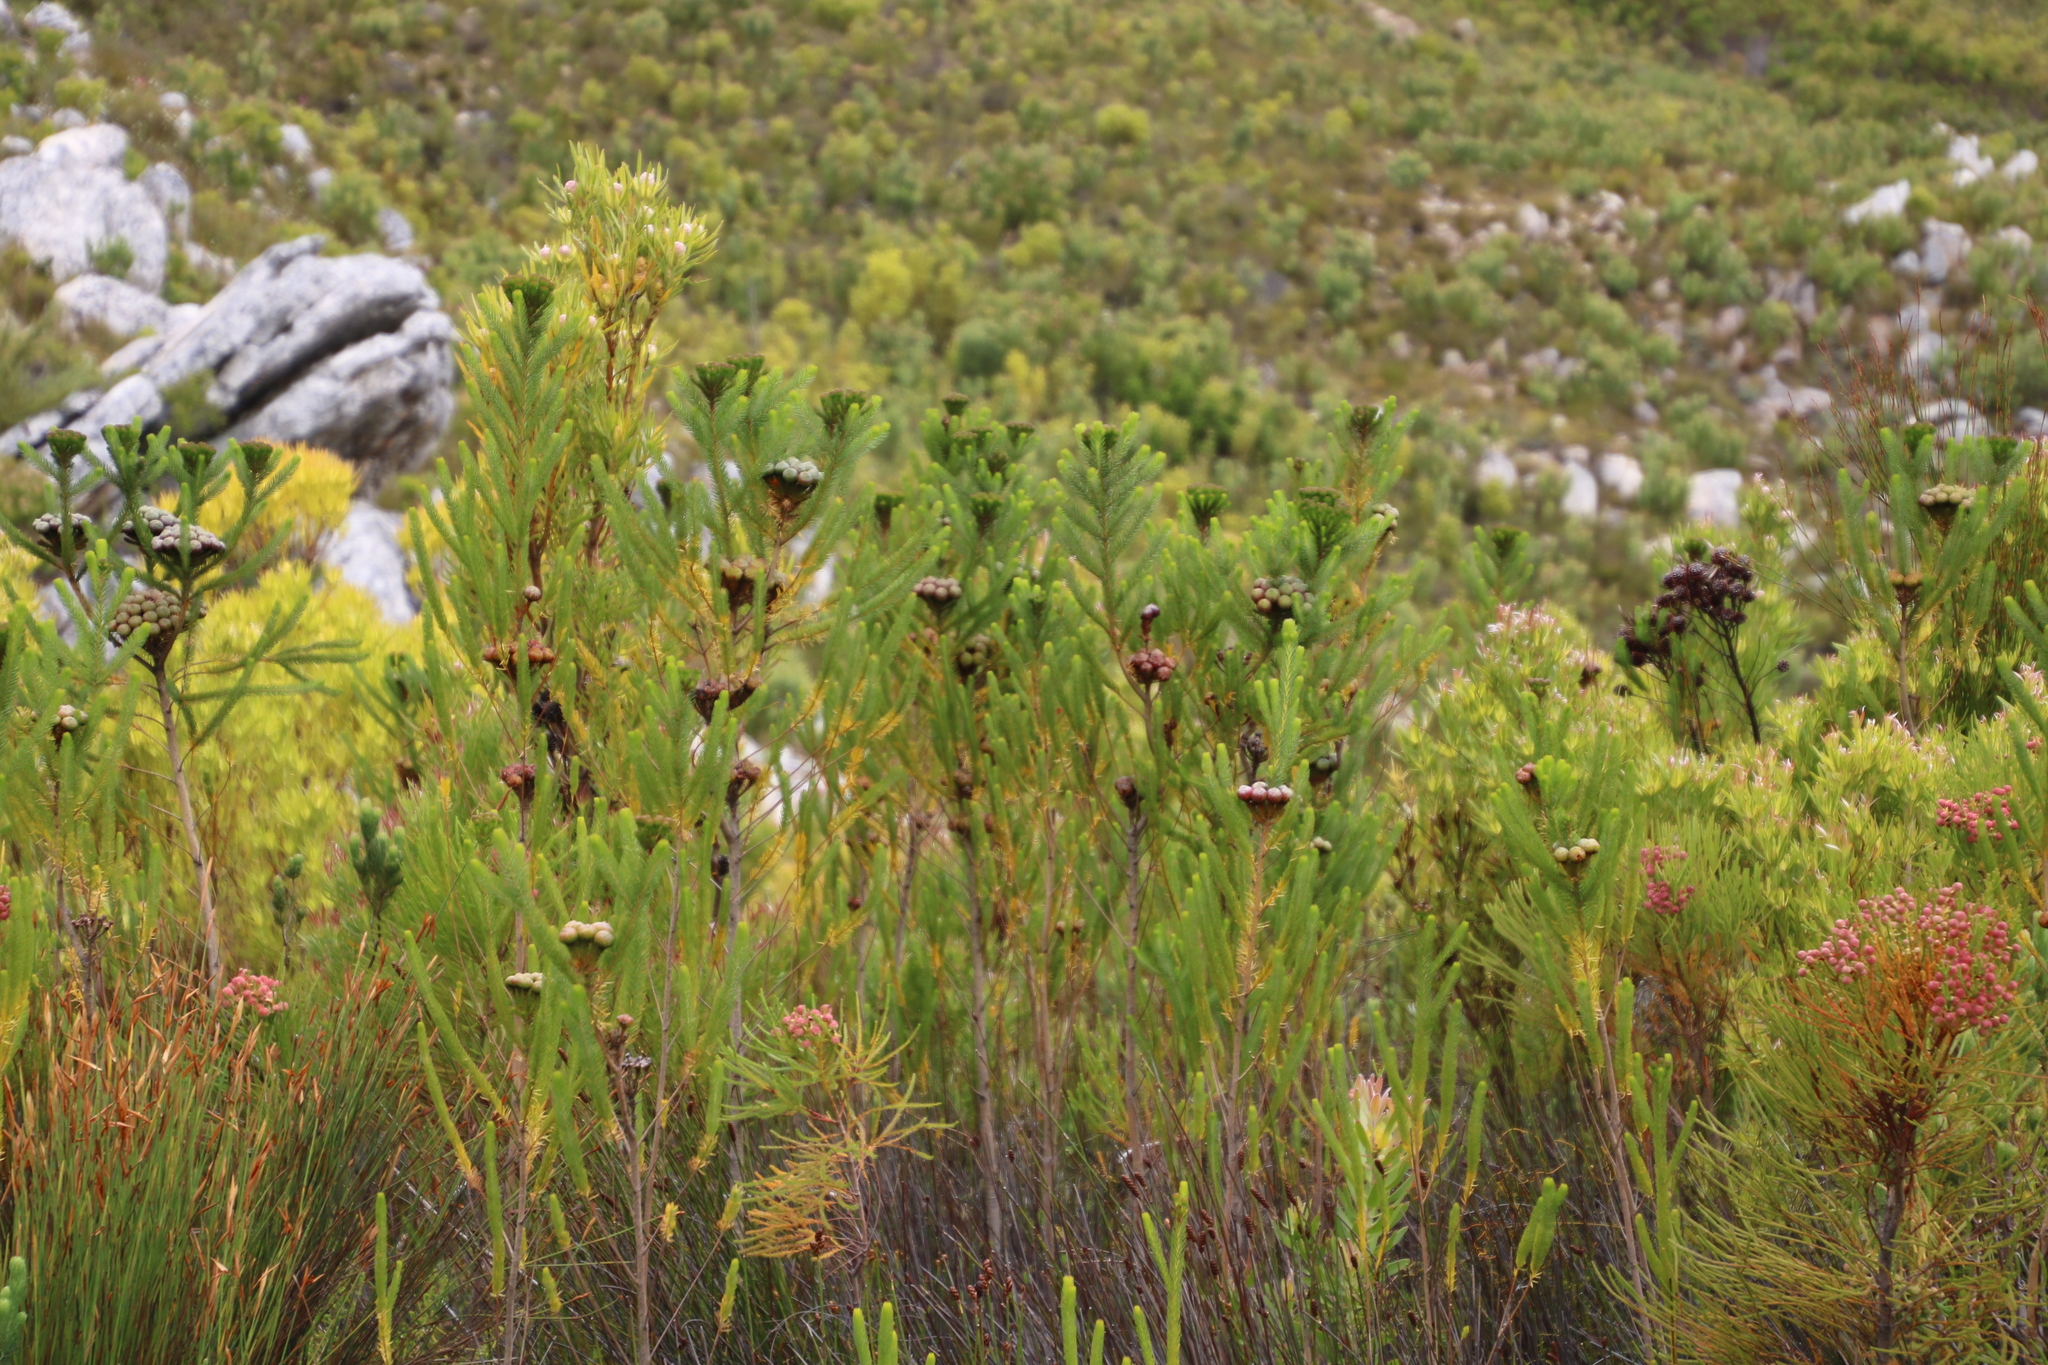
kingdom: Plantae
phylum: Tracheophyta
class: Magnoliopsida
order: Bruniales
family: Bruniaceae
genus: Berzelia
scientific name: Berzelia albiflora
